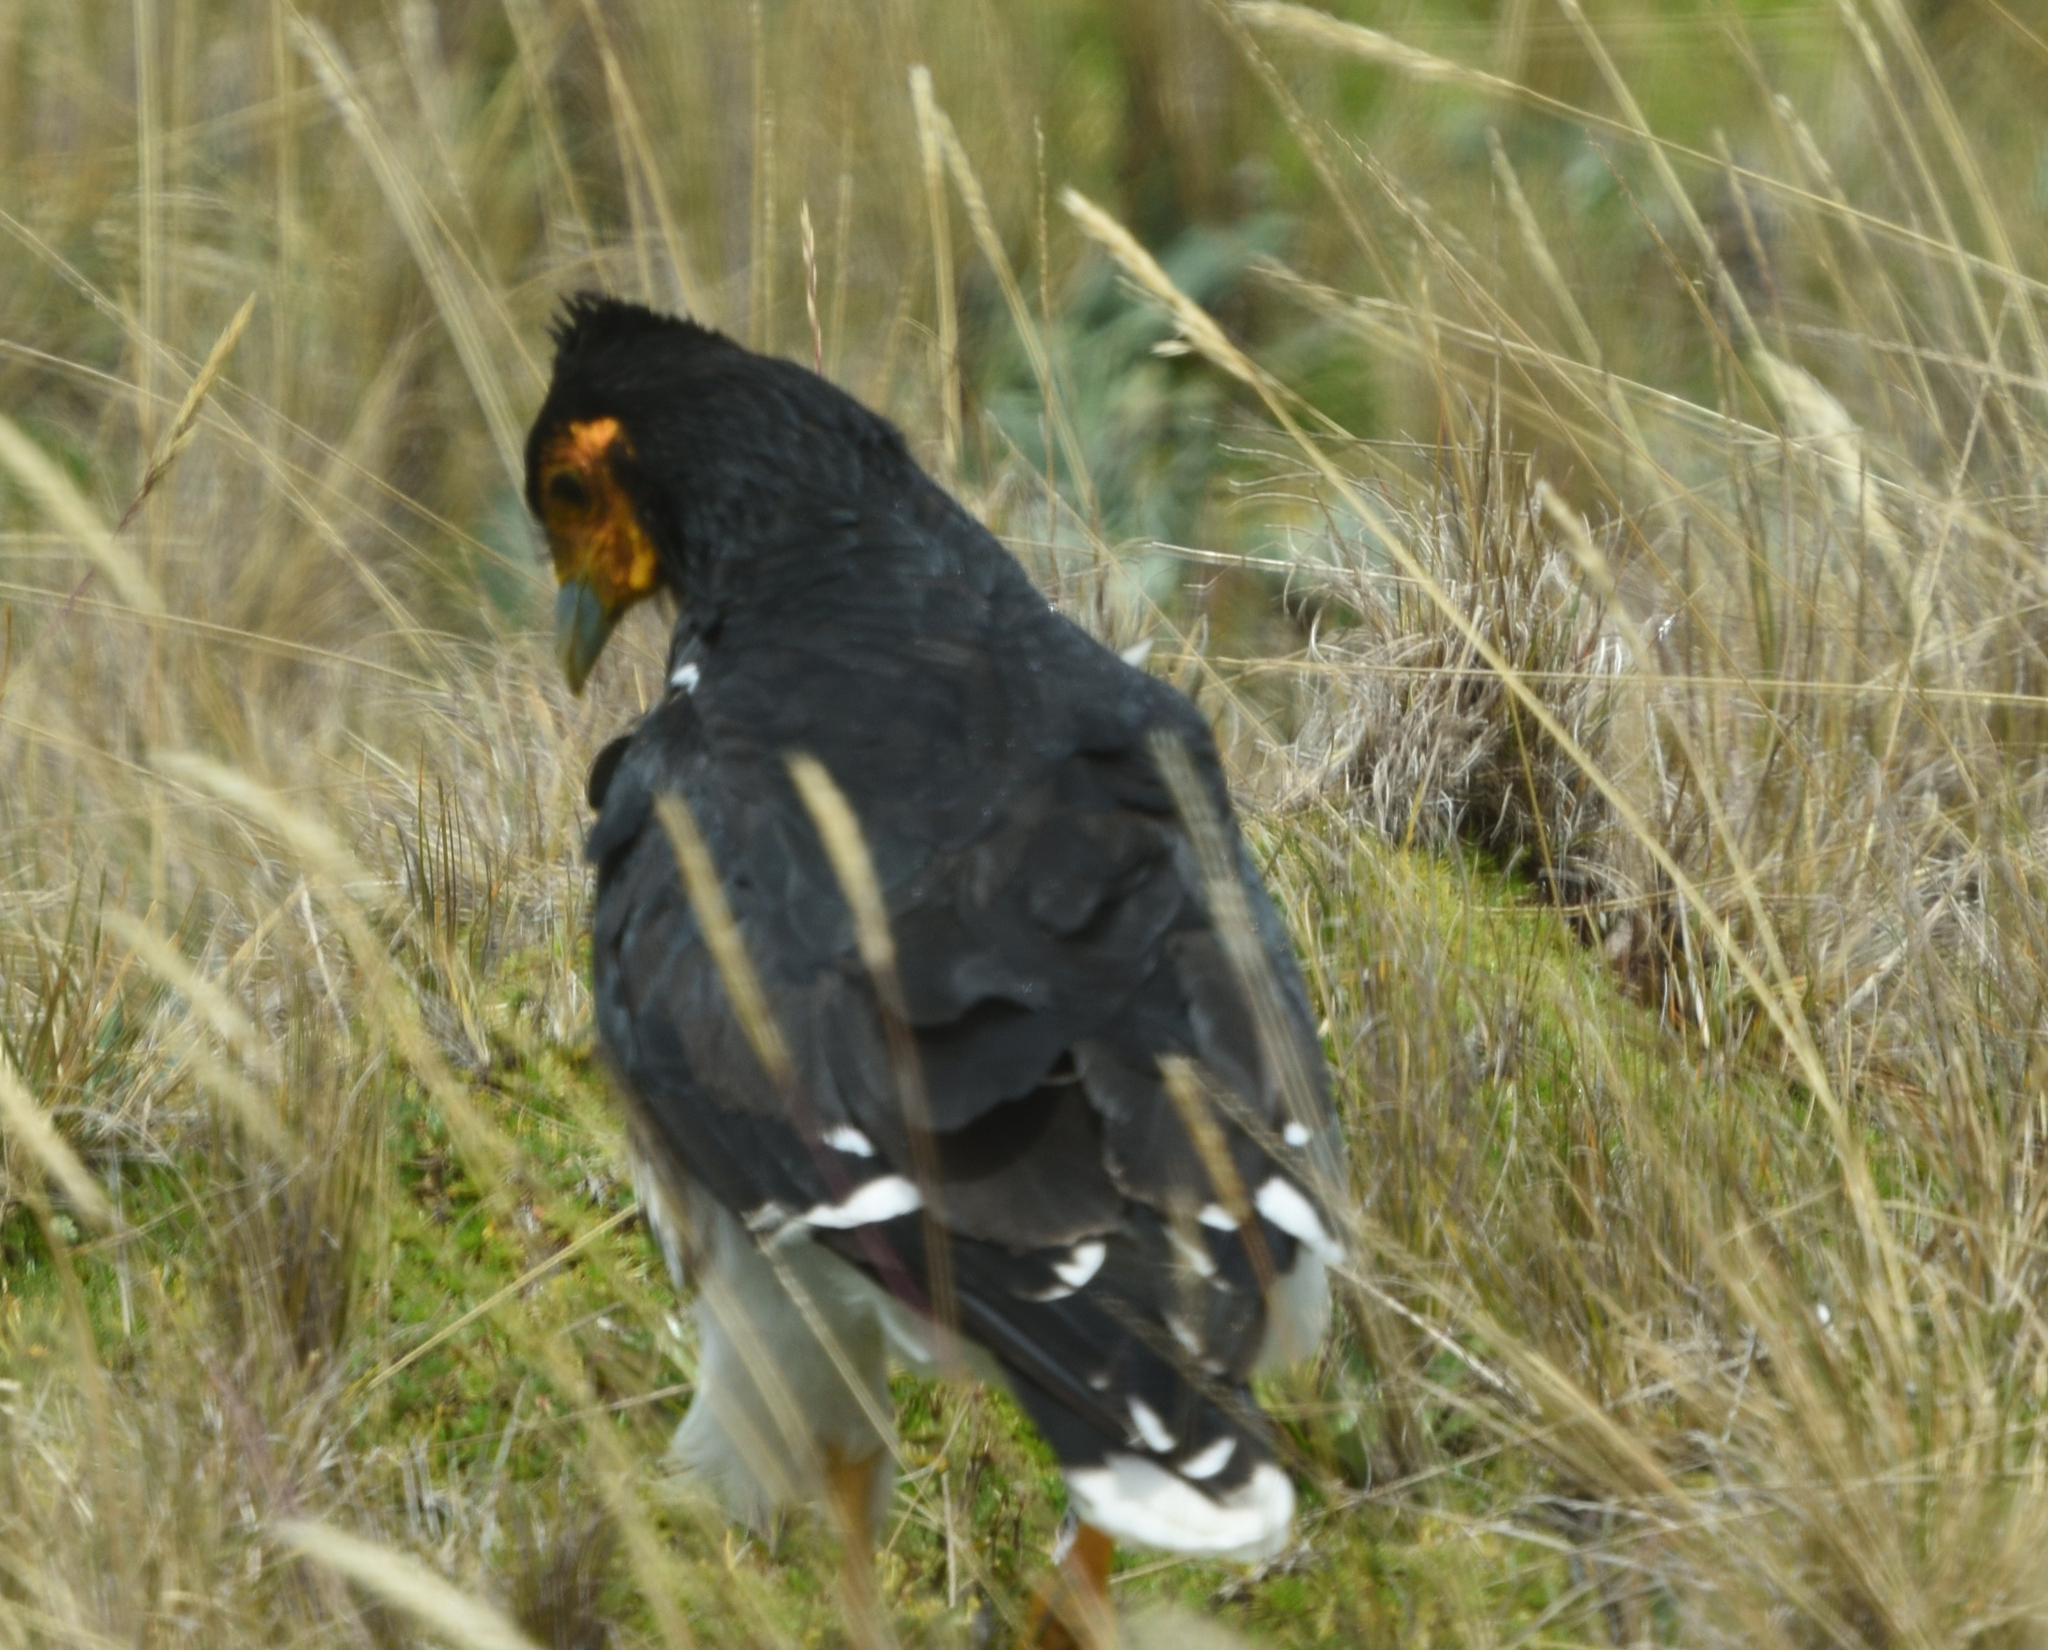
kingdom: Animalia
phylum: Chordata
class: Aves
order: Falconiformes
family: Falconidae
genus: Daptrius
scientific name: Daptrius
